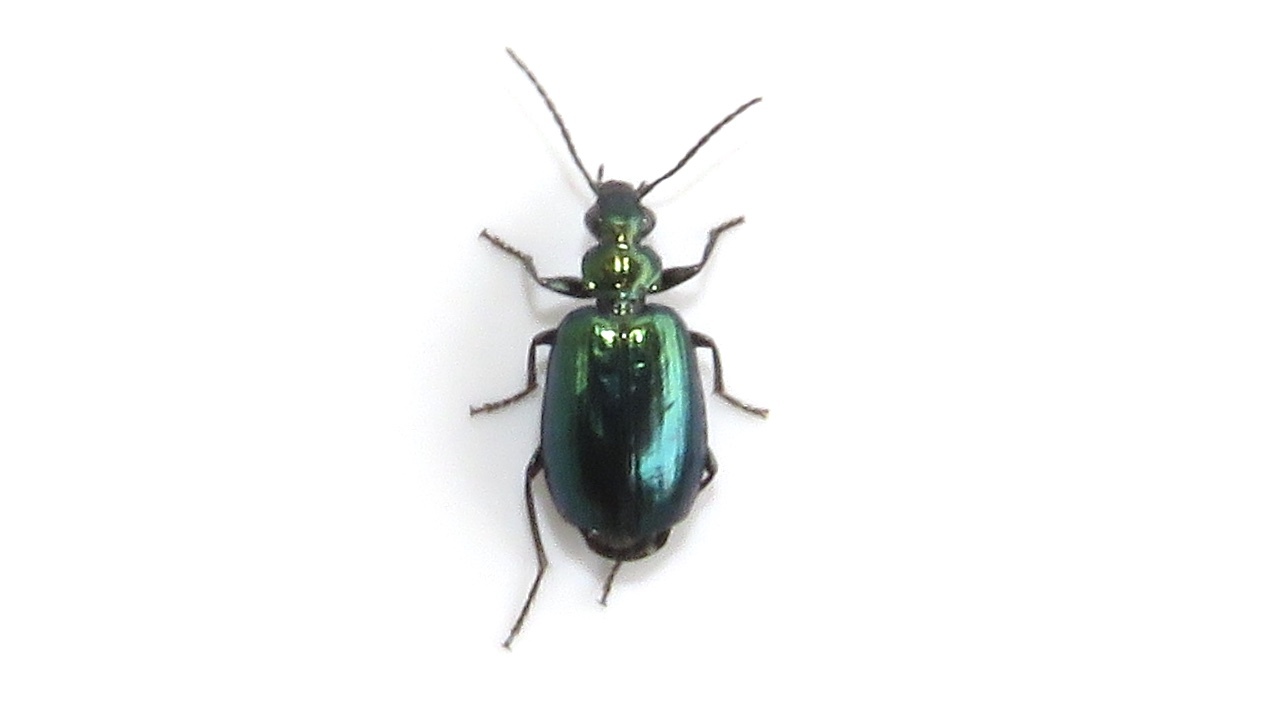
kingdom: Animalia
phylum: Arthropoda
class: Insecta
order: Coleoptera
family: Carabidae
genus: Lebia
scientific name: Lebia viridis
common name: Flower lebia beetle
